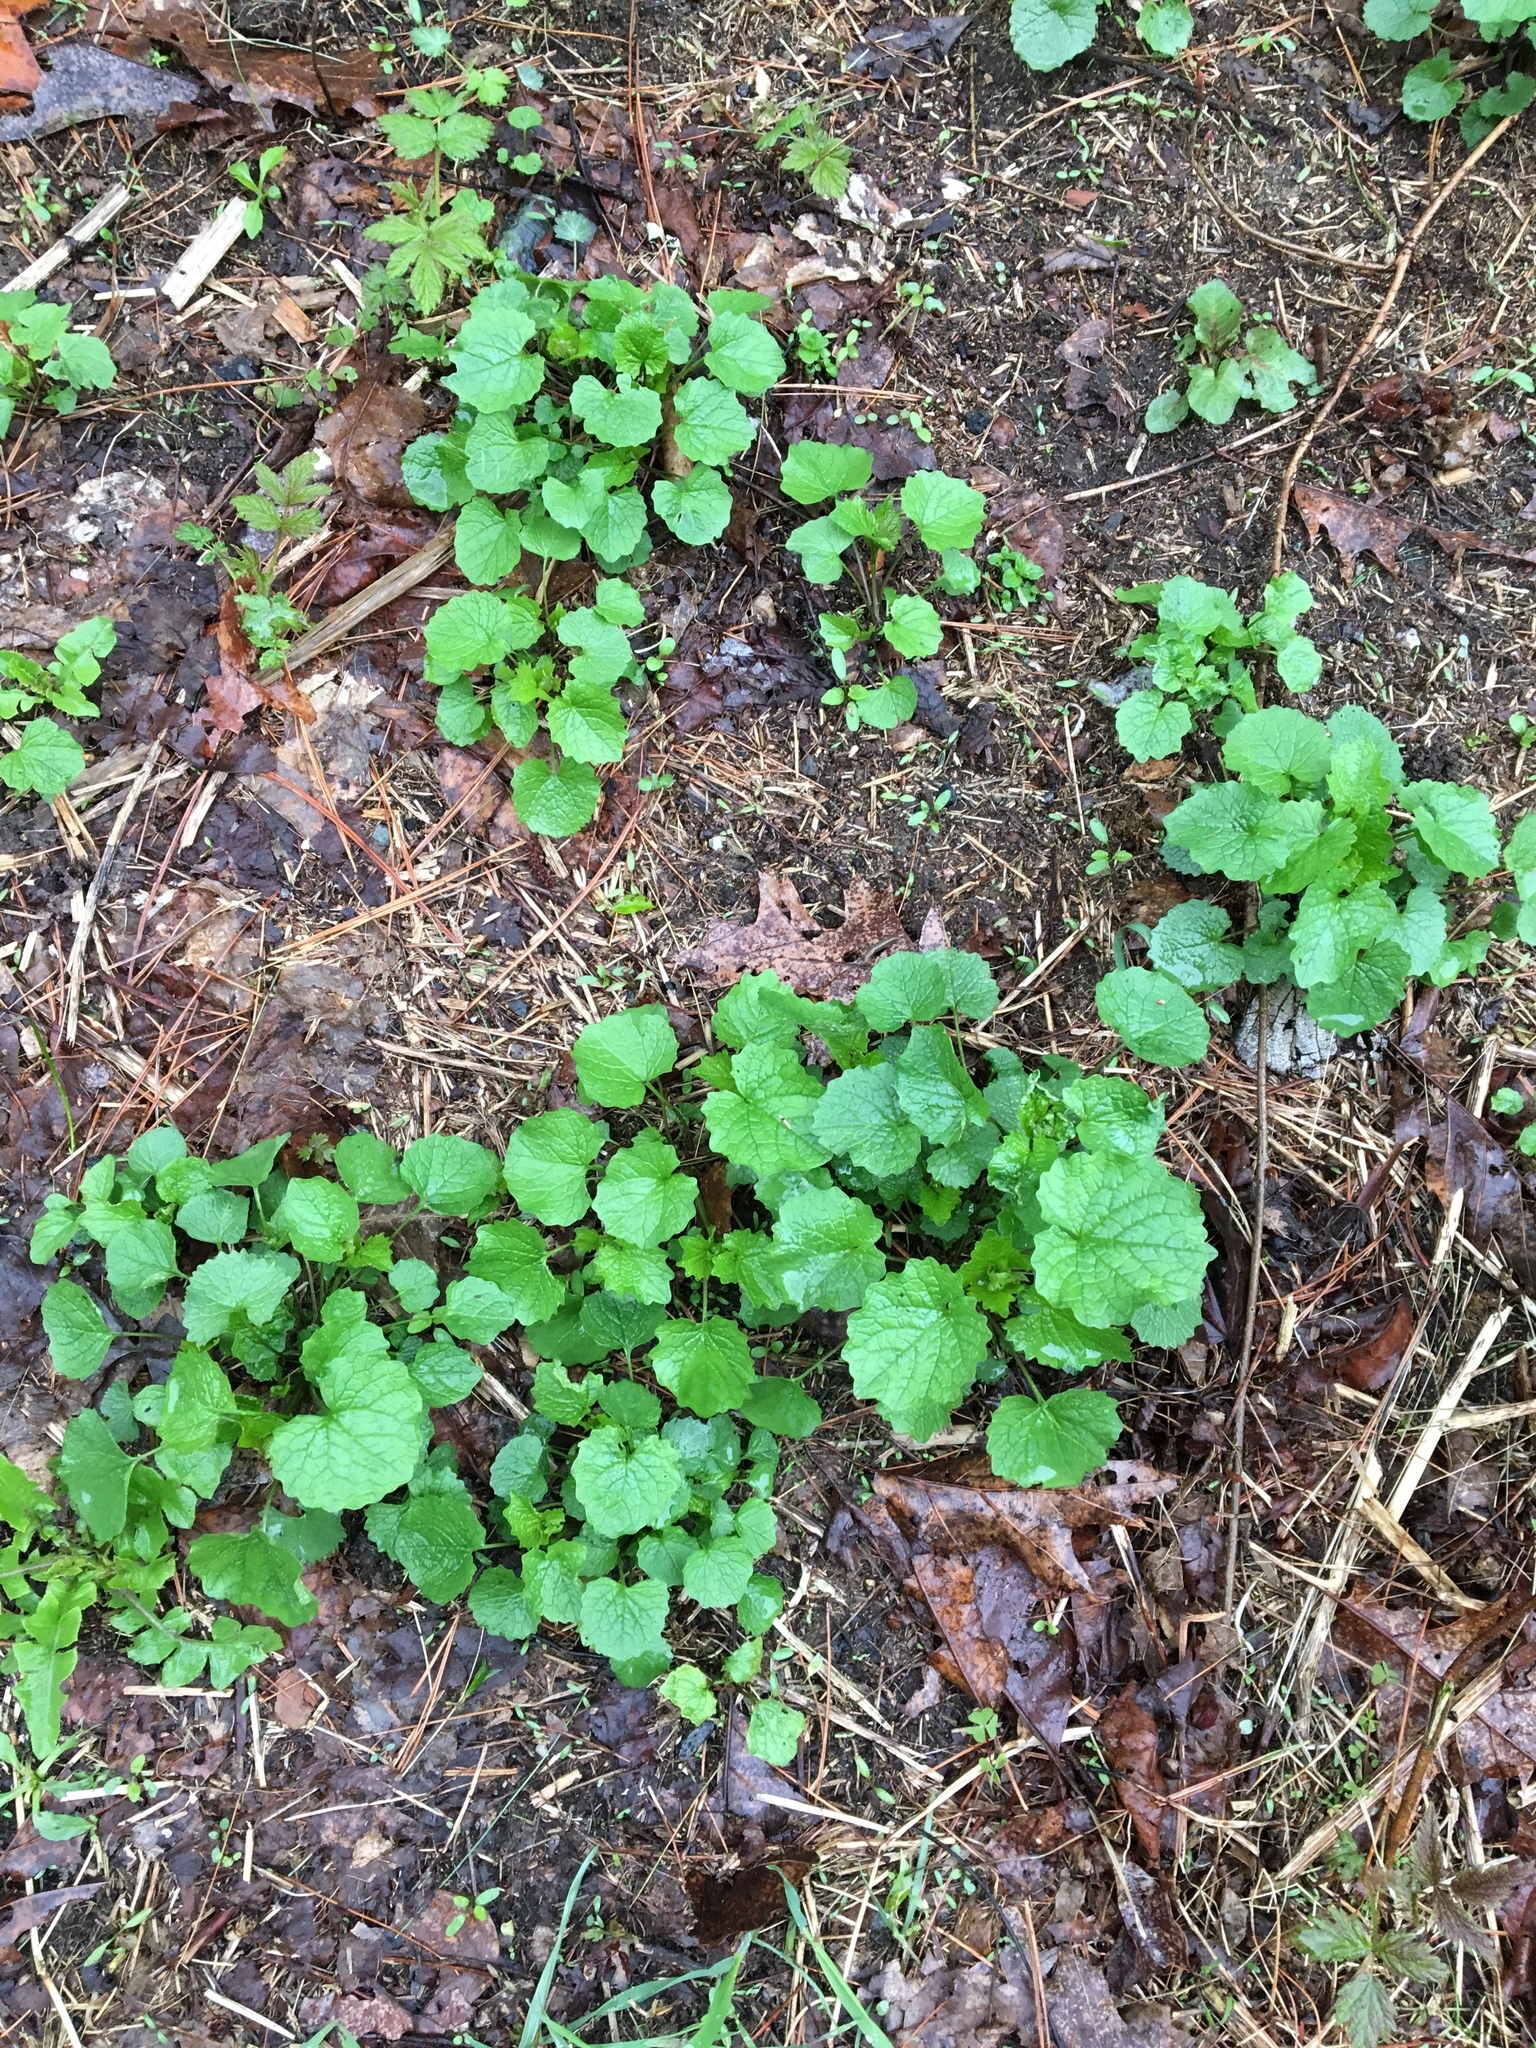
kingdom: Plantae
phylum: Tracheophyta
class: Magnoliopsida
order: Brassicales
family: Brassicaceae
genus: Alliaria
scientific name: Alliaria petiolata
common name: Garlic mustard
